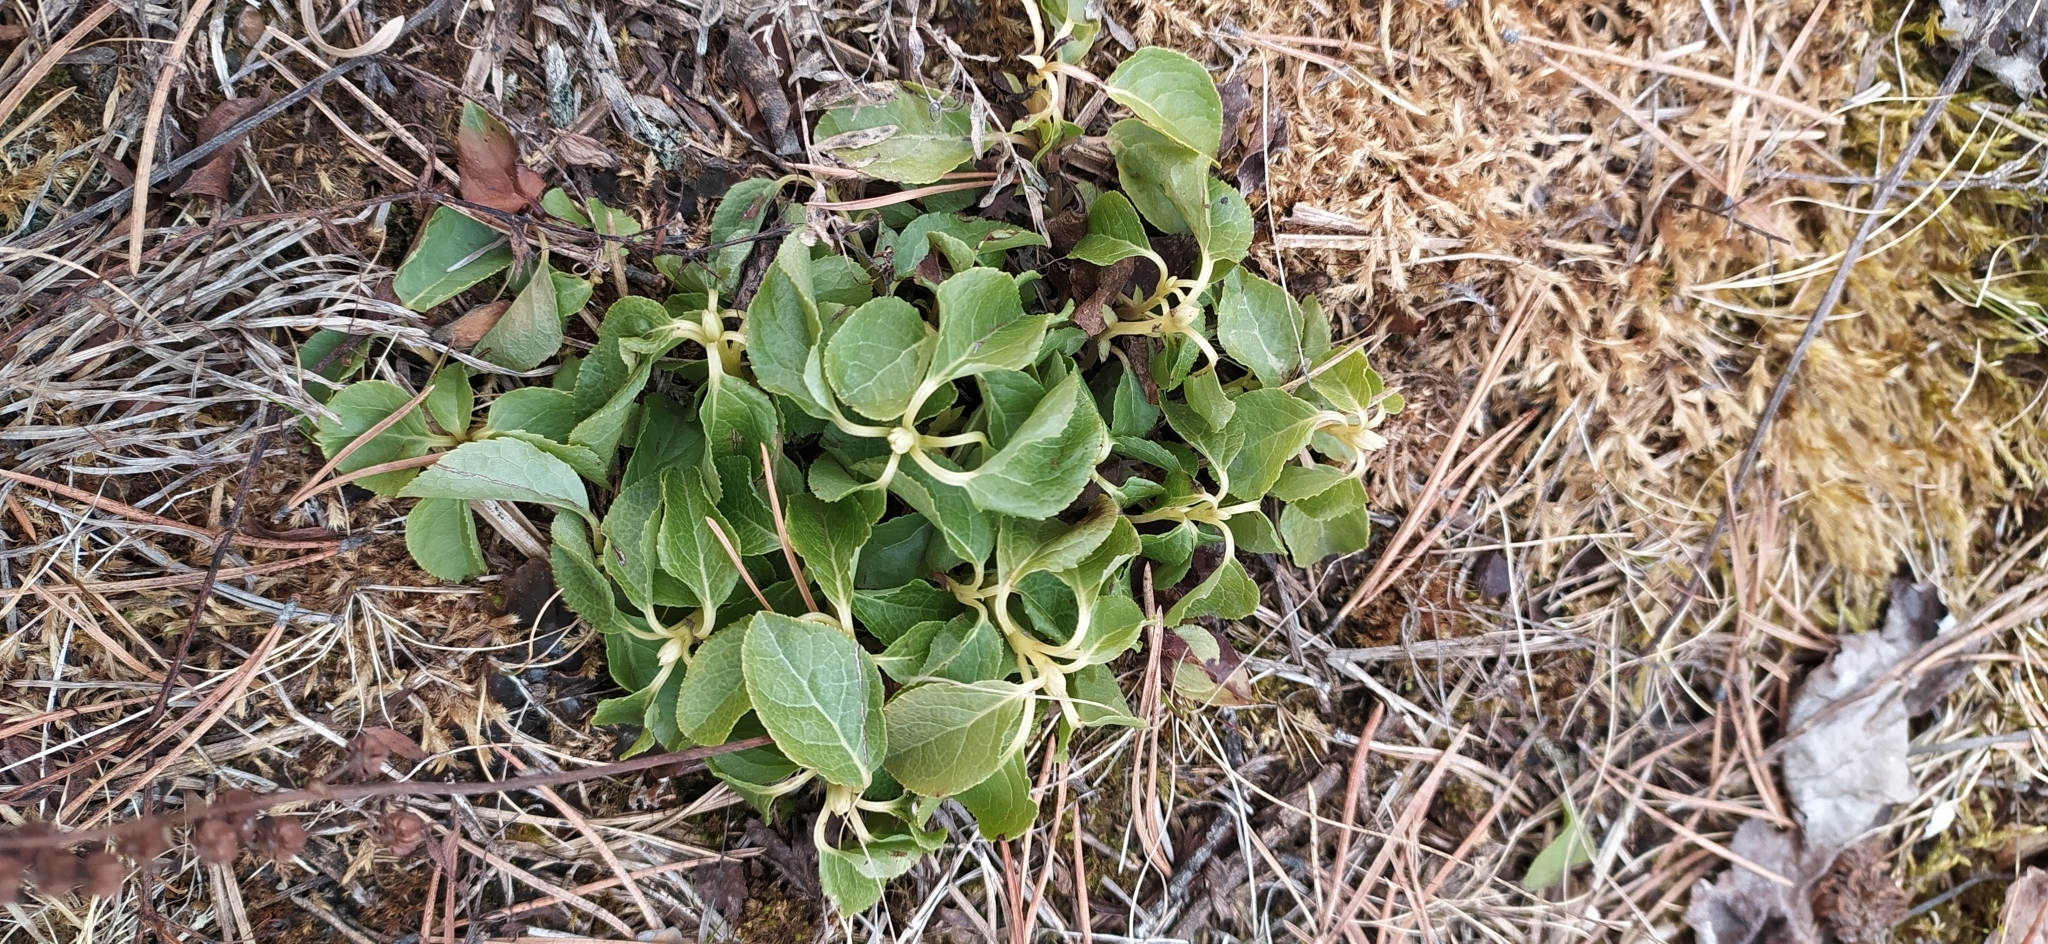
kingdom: Plantae
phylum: Tracheophyta
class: Magnoliopsida
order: Ericales
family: Ericaceae
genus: Orthilia
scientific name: Orthilia secunda
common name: One-sided orthilia
